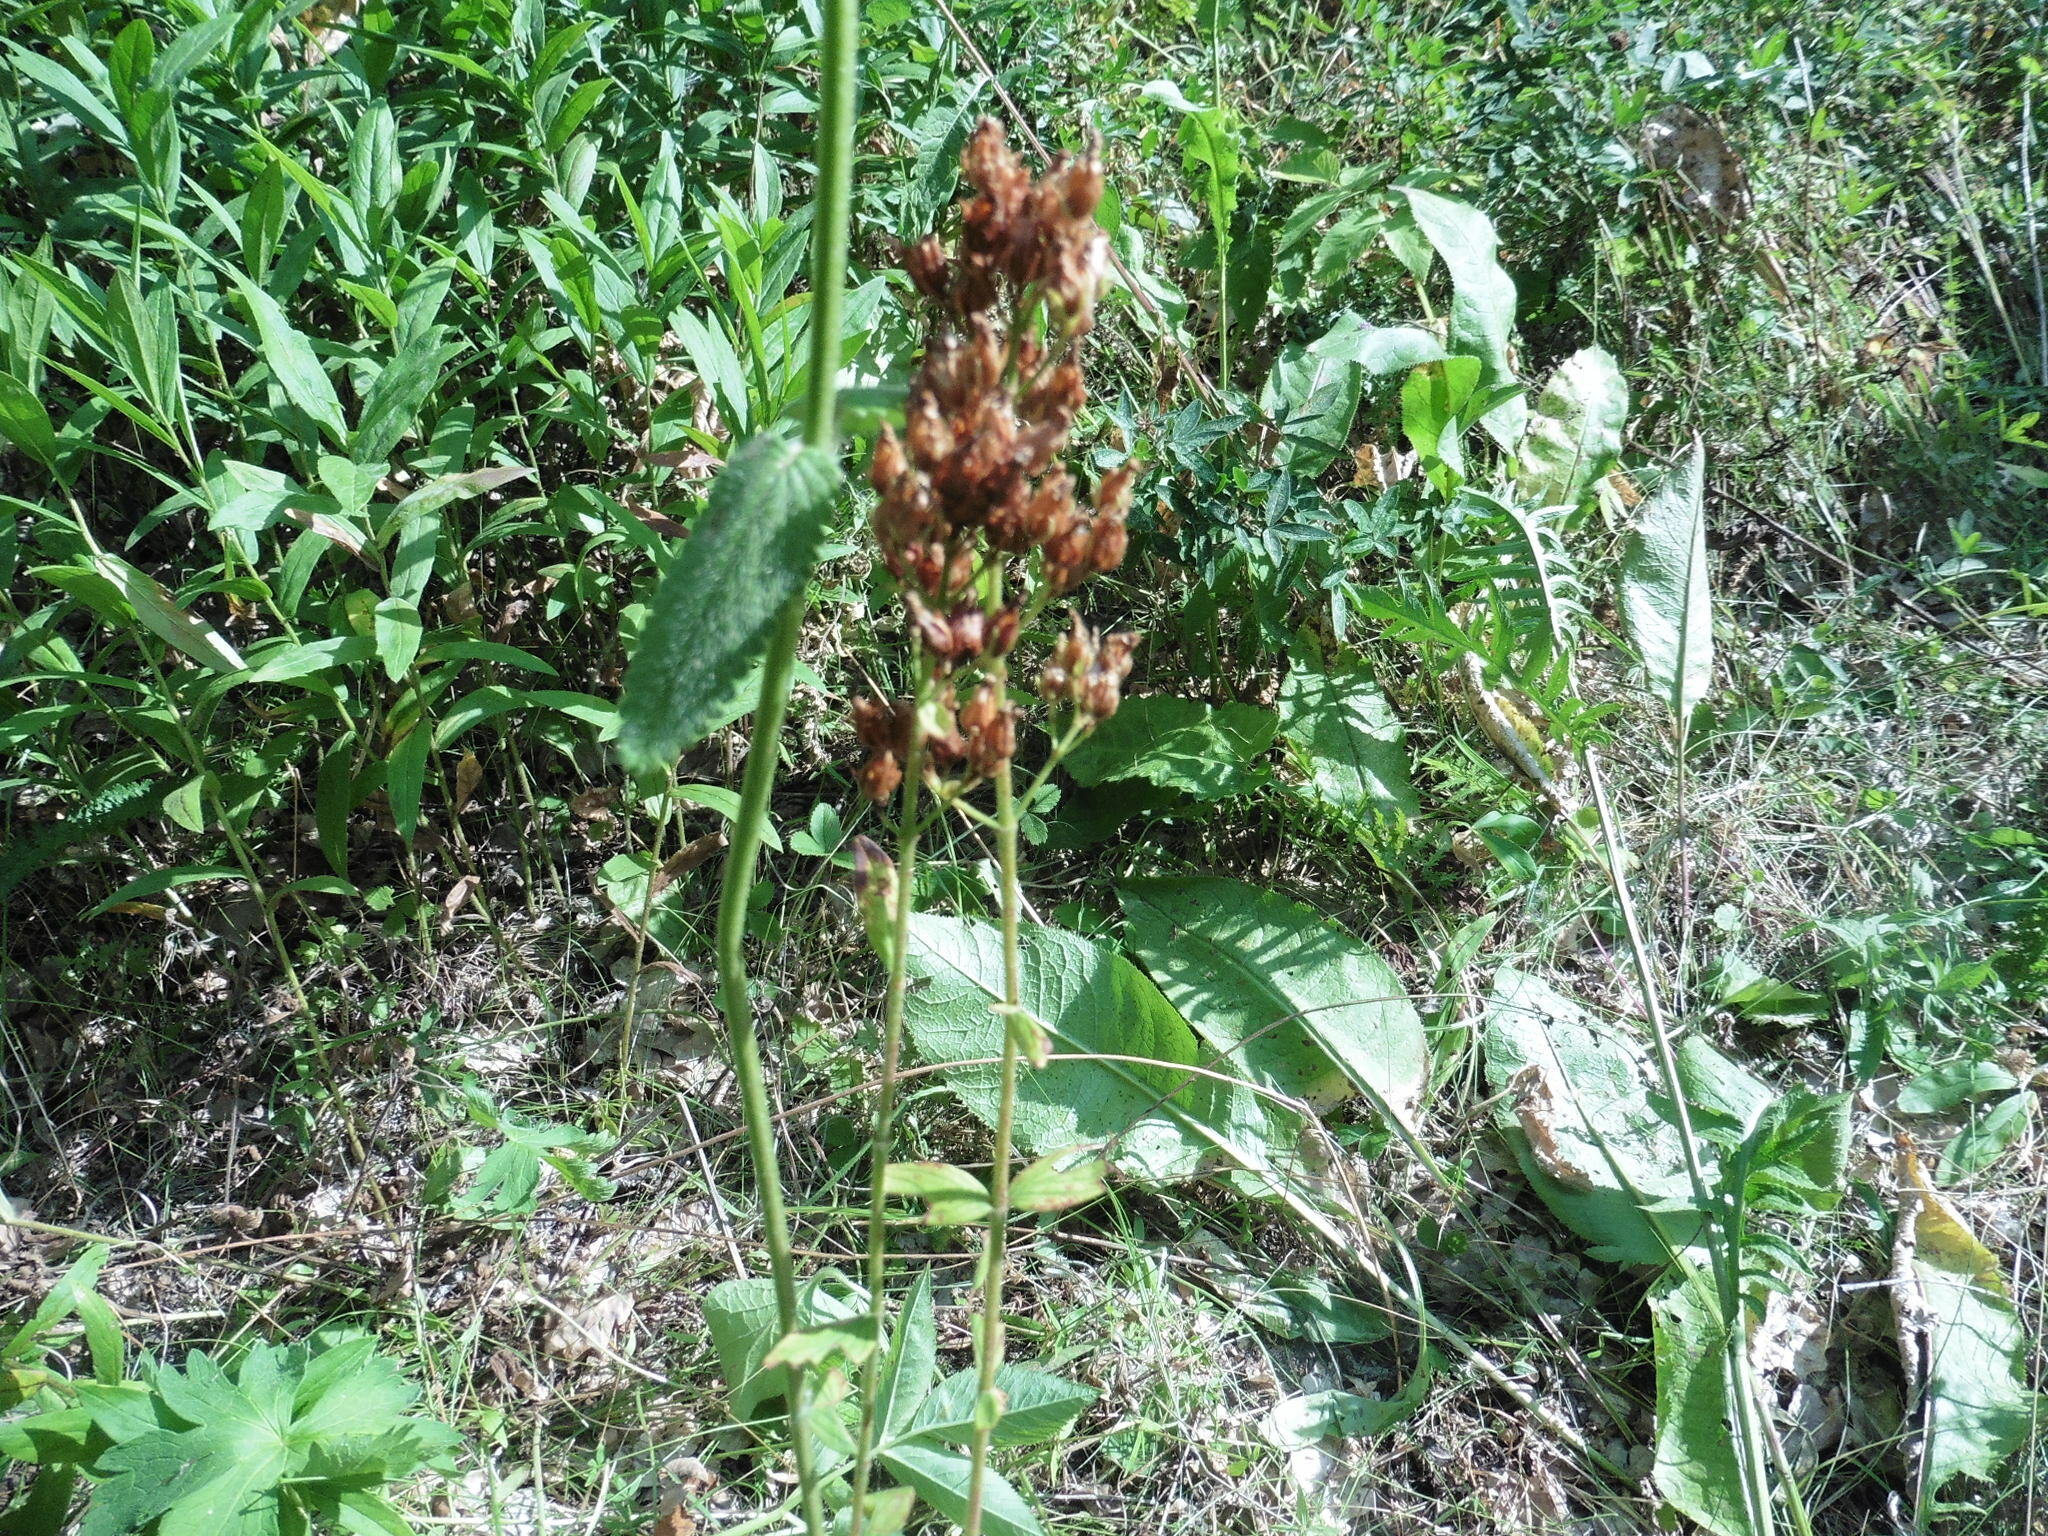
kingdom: Plantae
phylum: Tracheophyta
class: Magnoliopsida
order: Malpighiales
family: Hypericaceae
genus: Hypericum
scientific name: Hypericum hirsutum
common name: Hairy st. john's-wort
